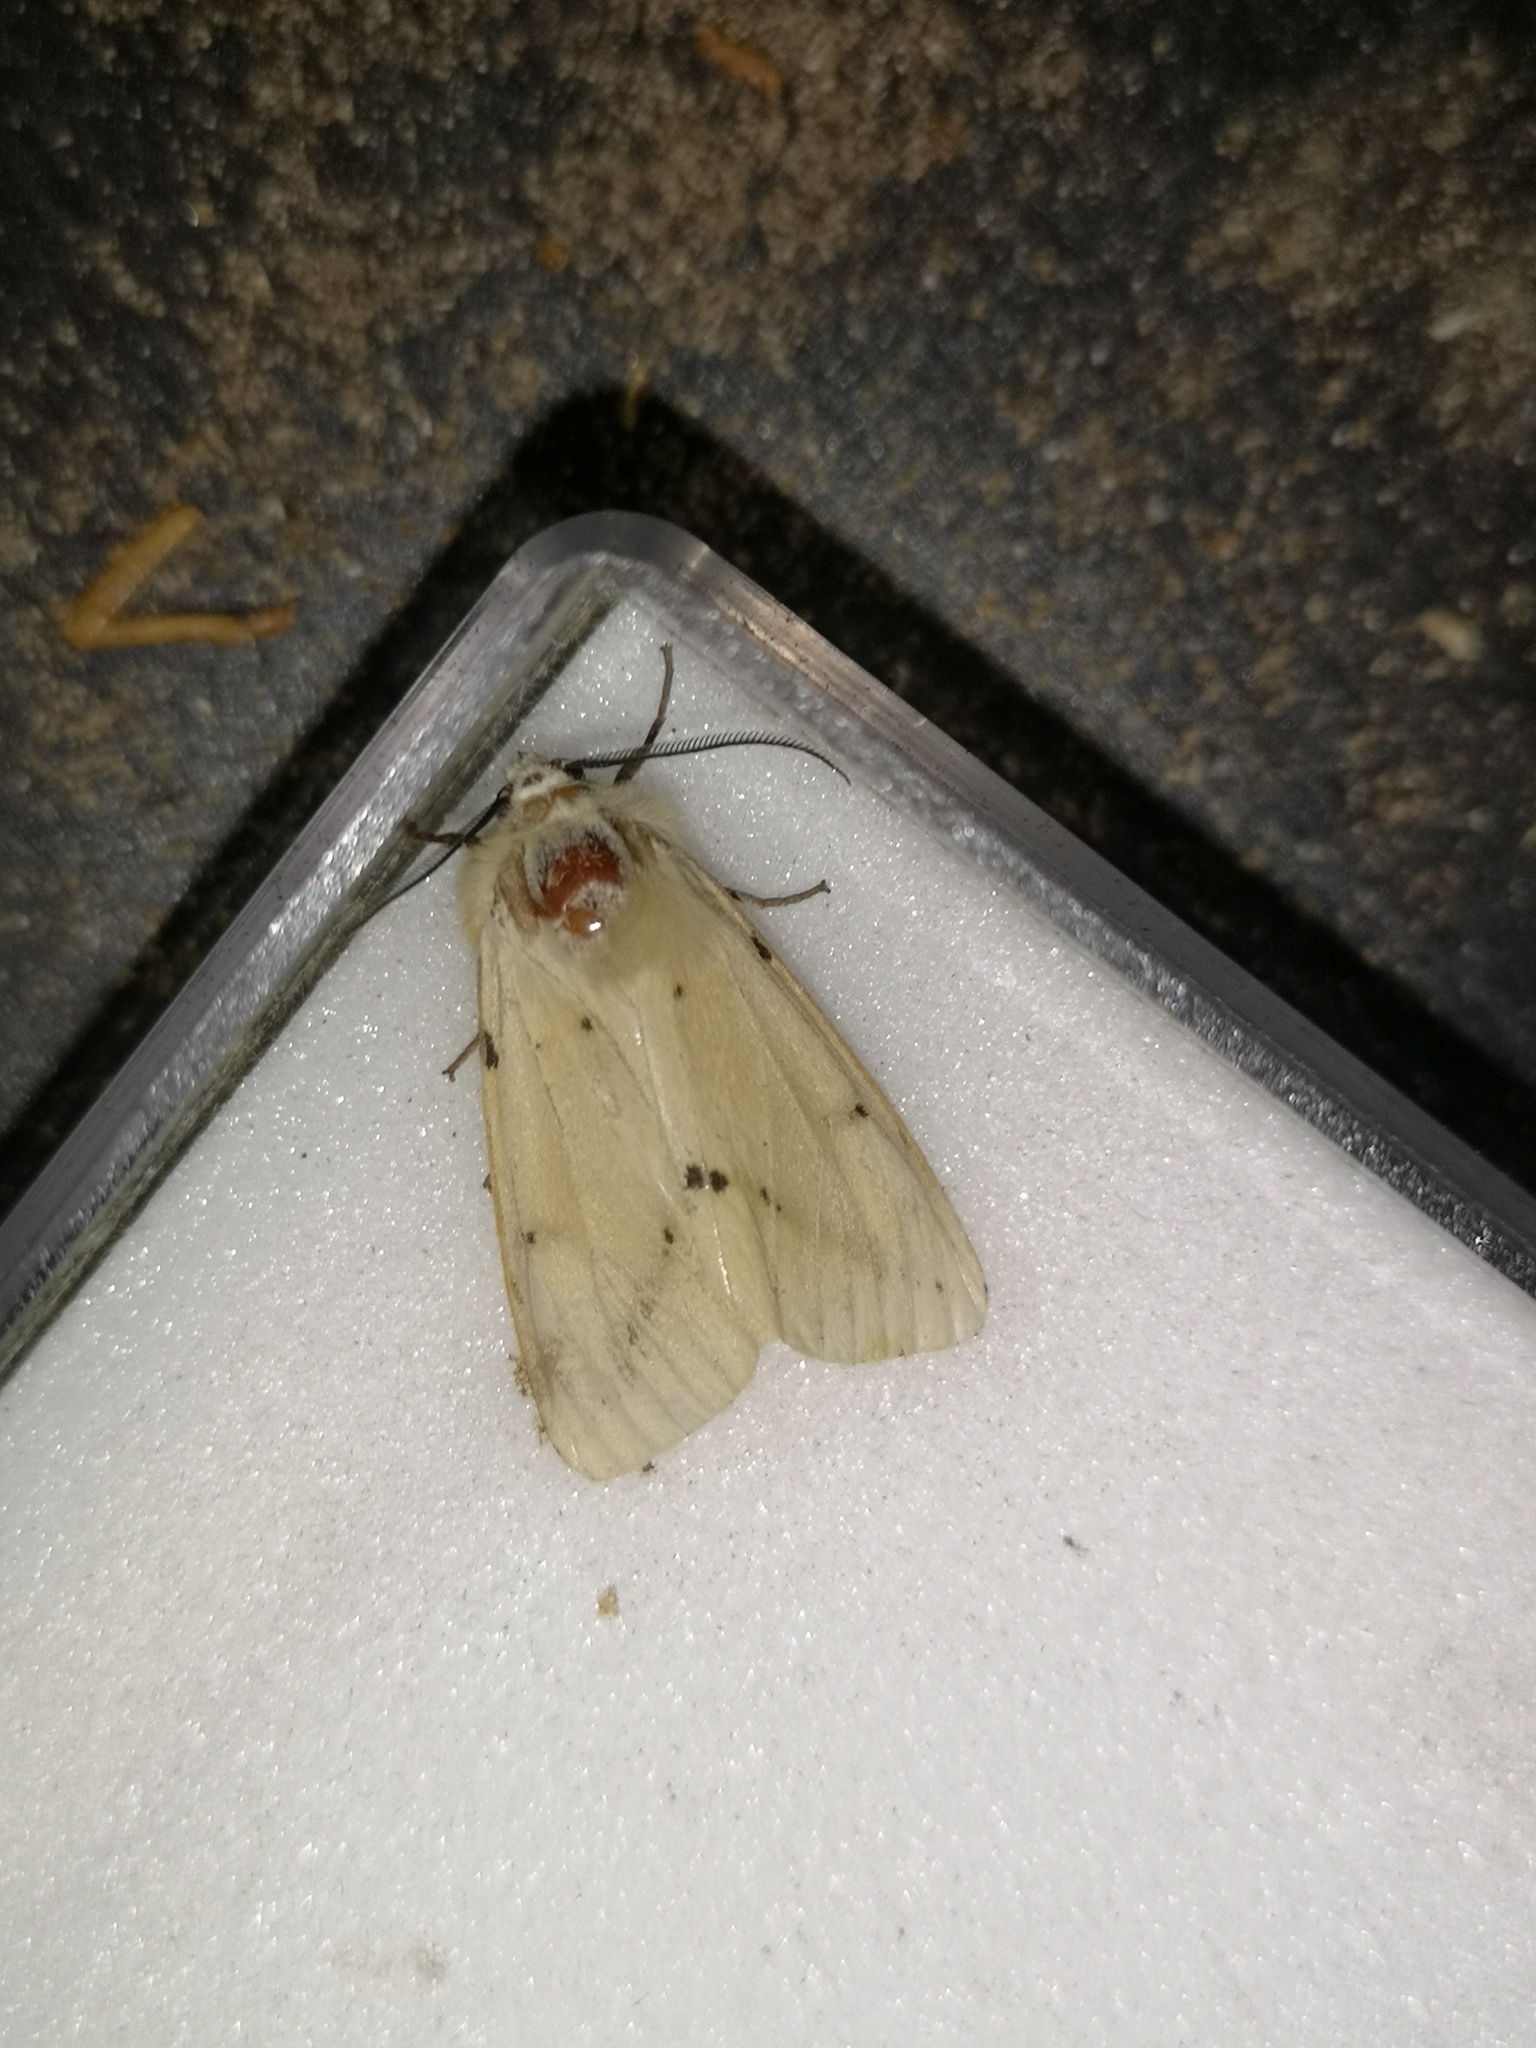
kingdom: Animalia
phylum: Arthropoda
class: Insecta
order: Lepidoptera
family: Erebidae
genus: Spilarctia
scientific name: Spilarctia lutea
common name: Buff ermine
